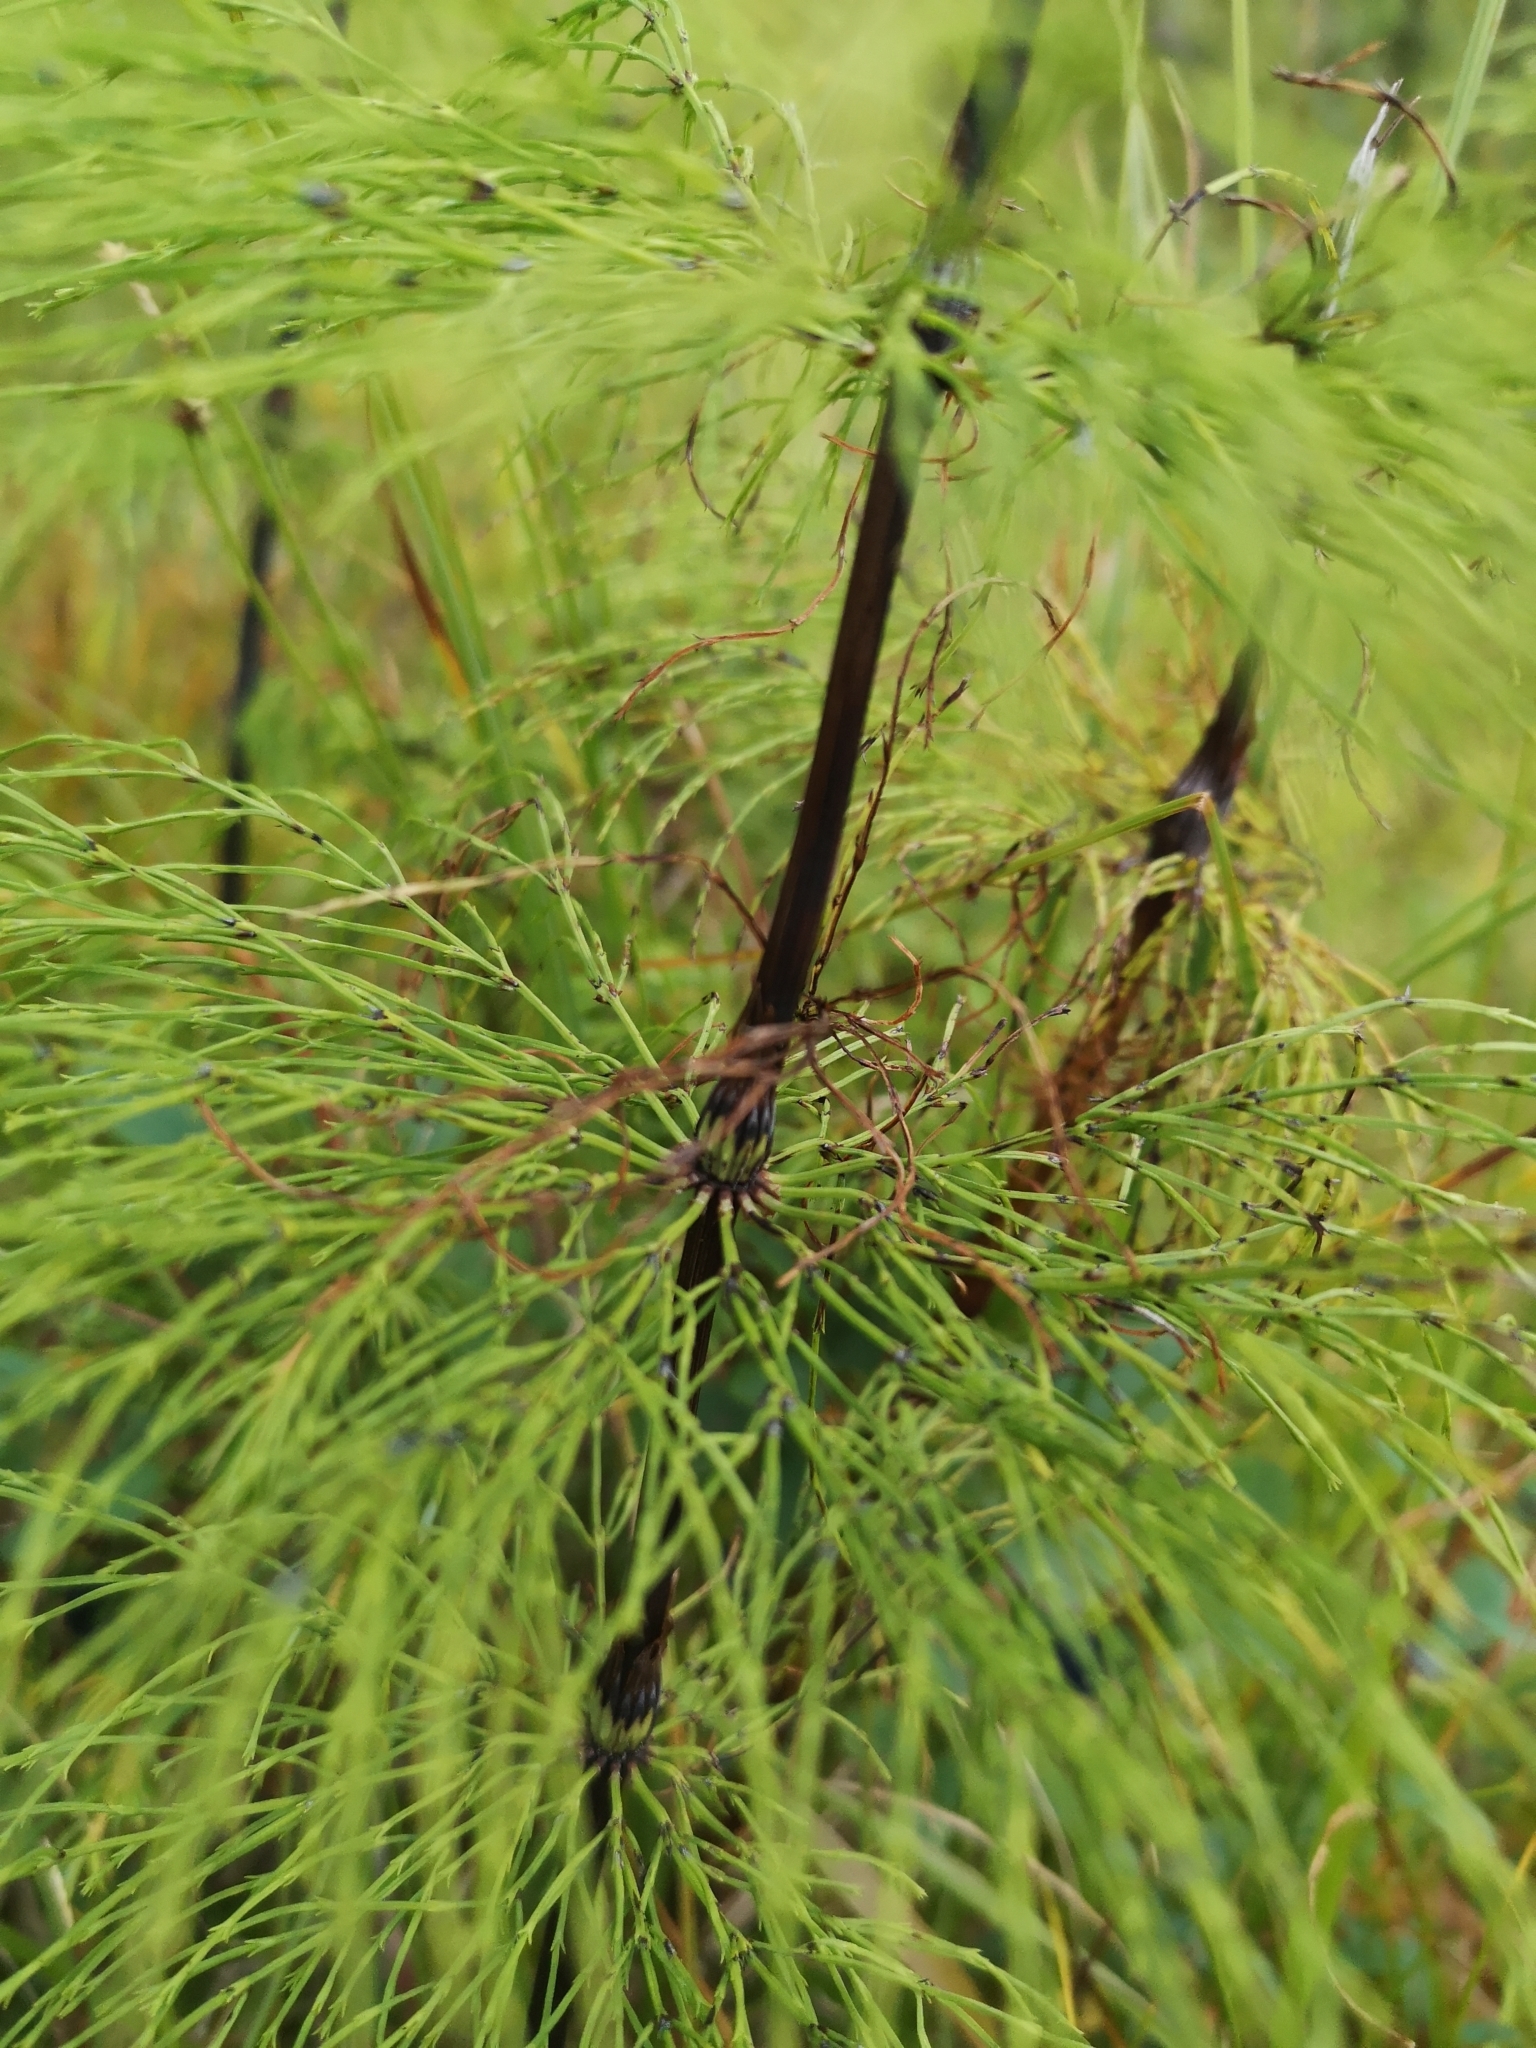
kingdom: Plantae
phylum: Tracheophyta
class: Polypodiopsida
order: Equisetales
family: Equisetaceae
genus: Equisetum
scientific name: Equisetum sylvaticum
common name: Wood horsetail
